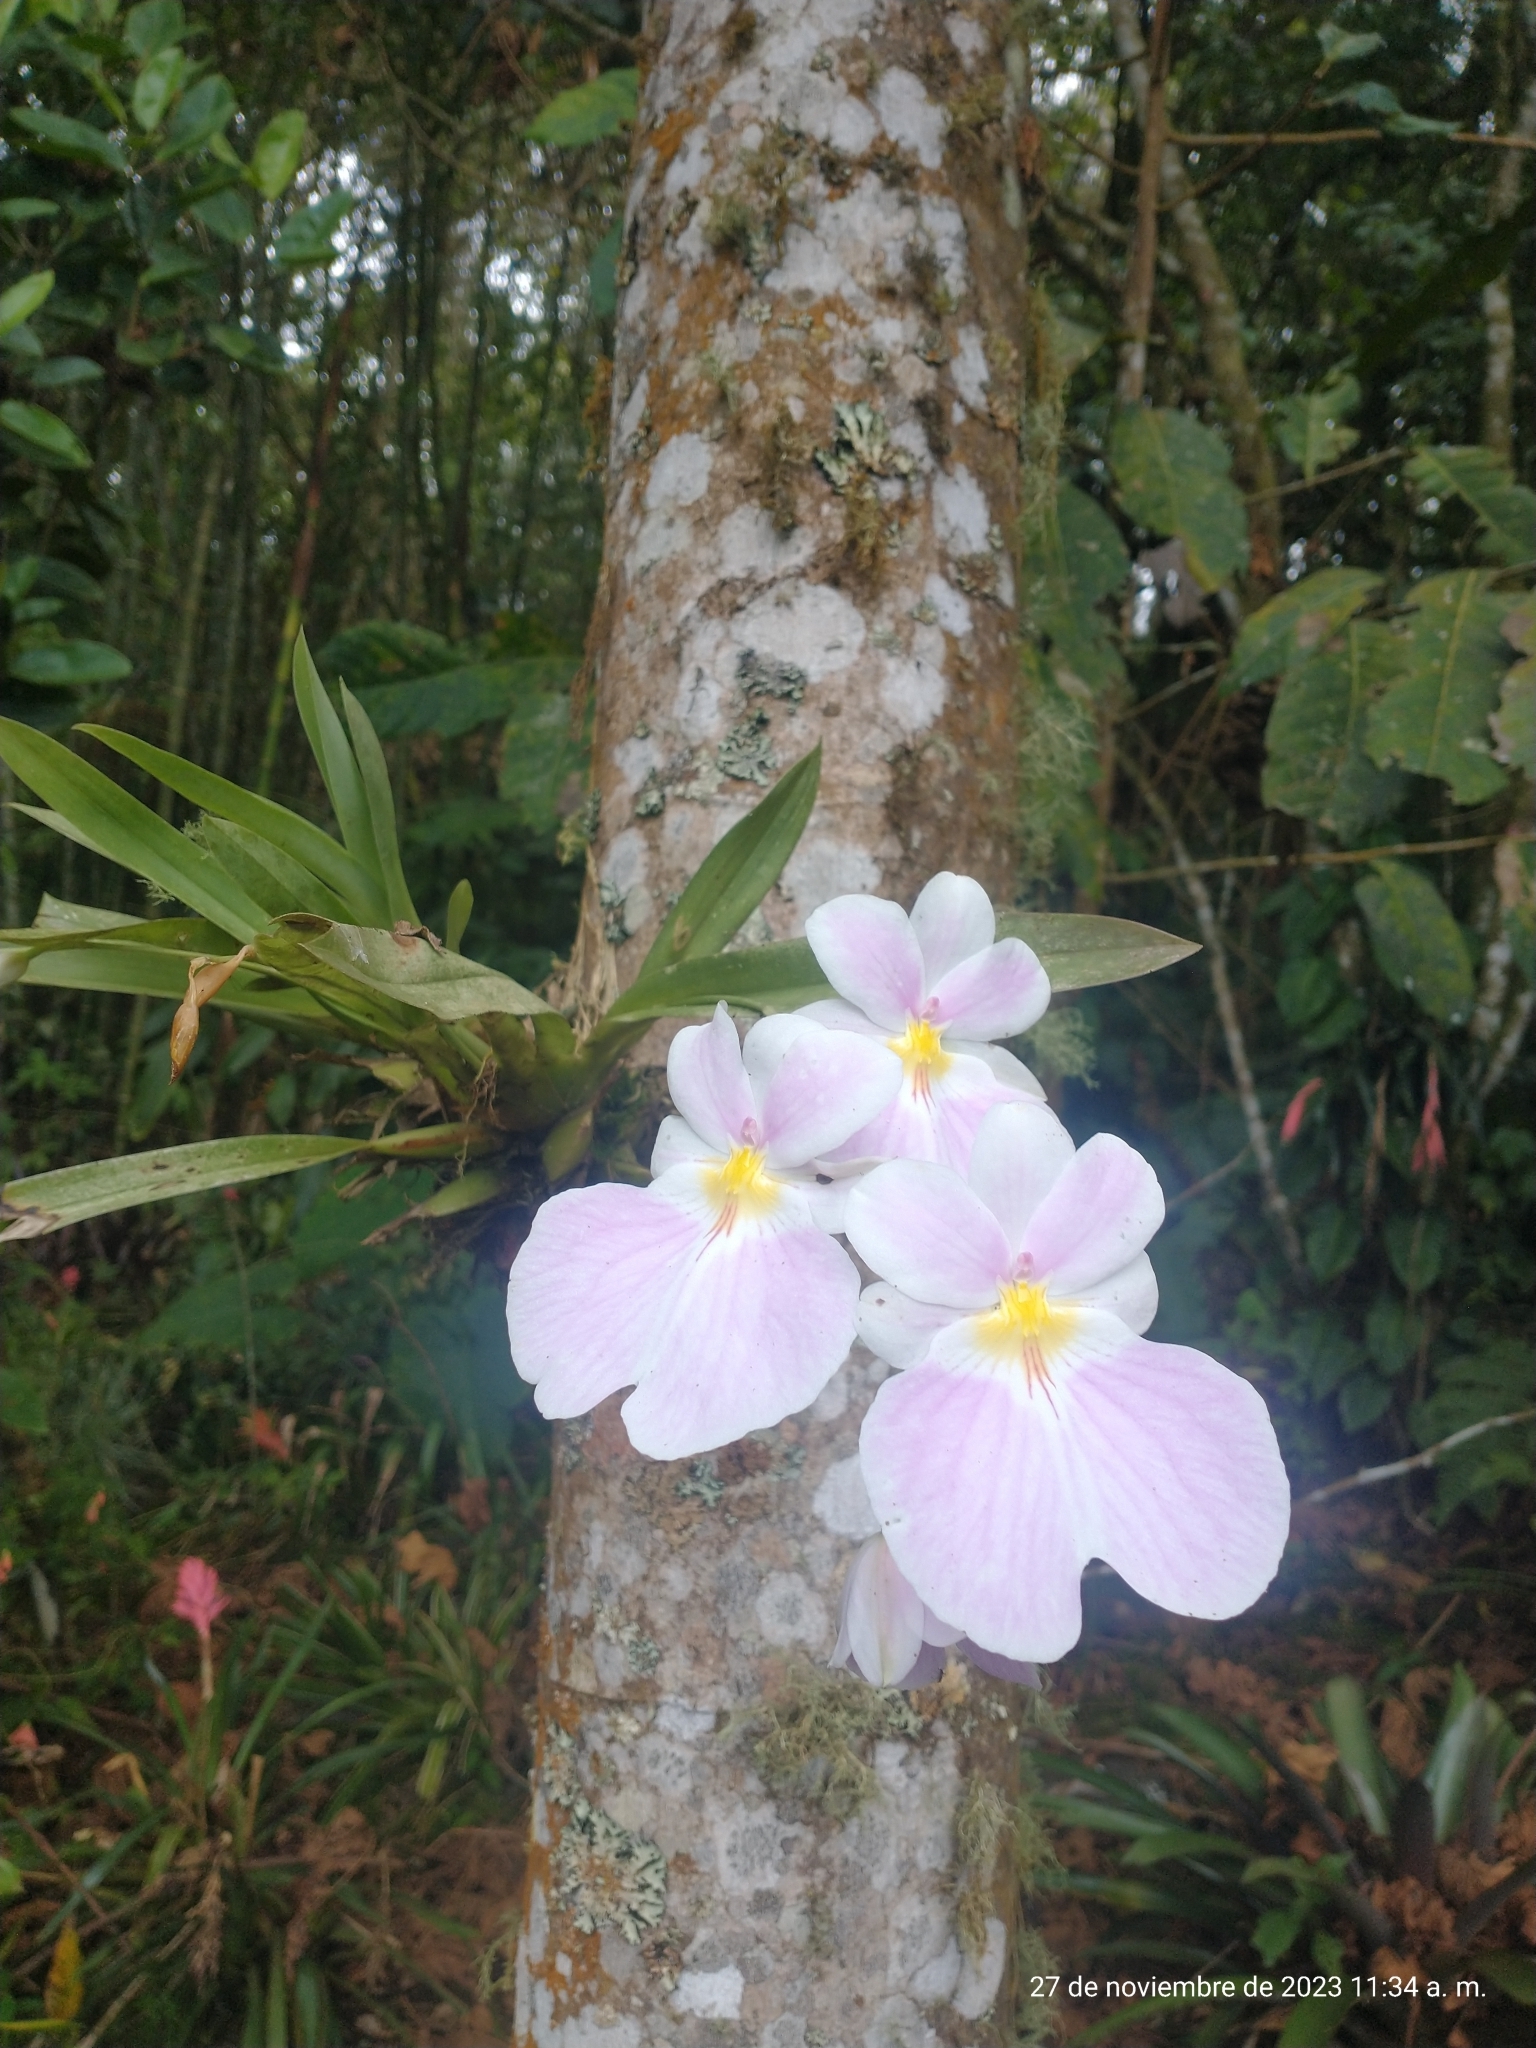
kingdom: Plantae
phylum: Tracheophyta
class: Liliopsida
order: Asparagales
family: Orchidaceae
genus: Miltoniopsis
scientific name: Miltoniopsis vexillaria
